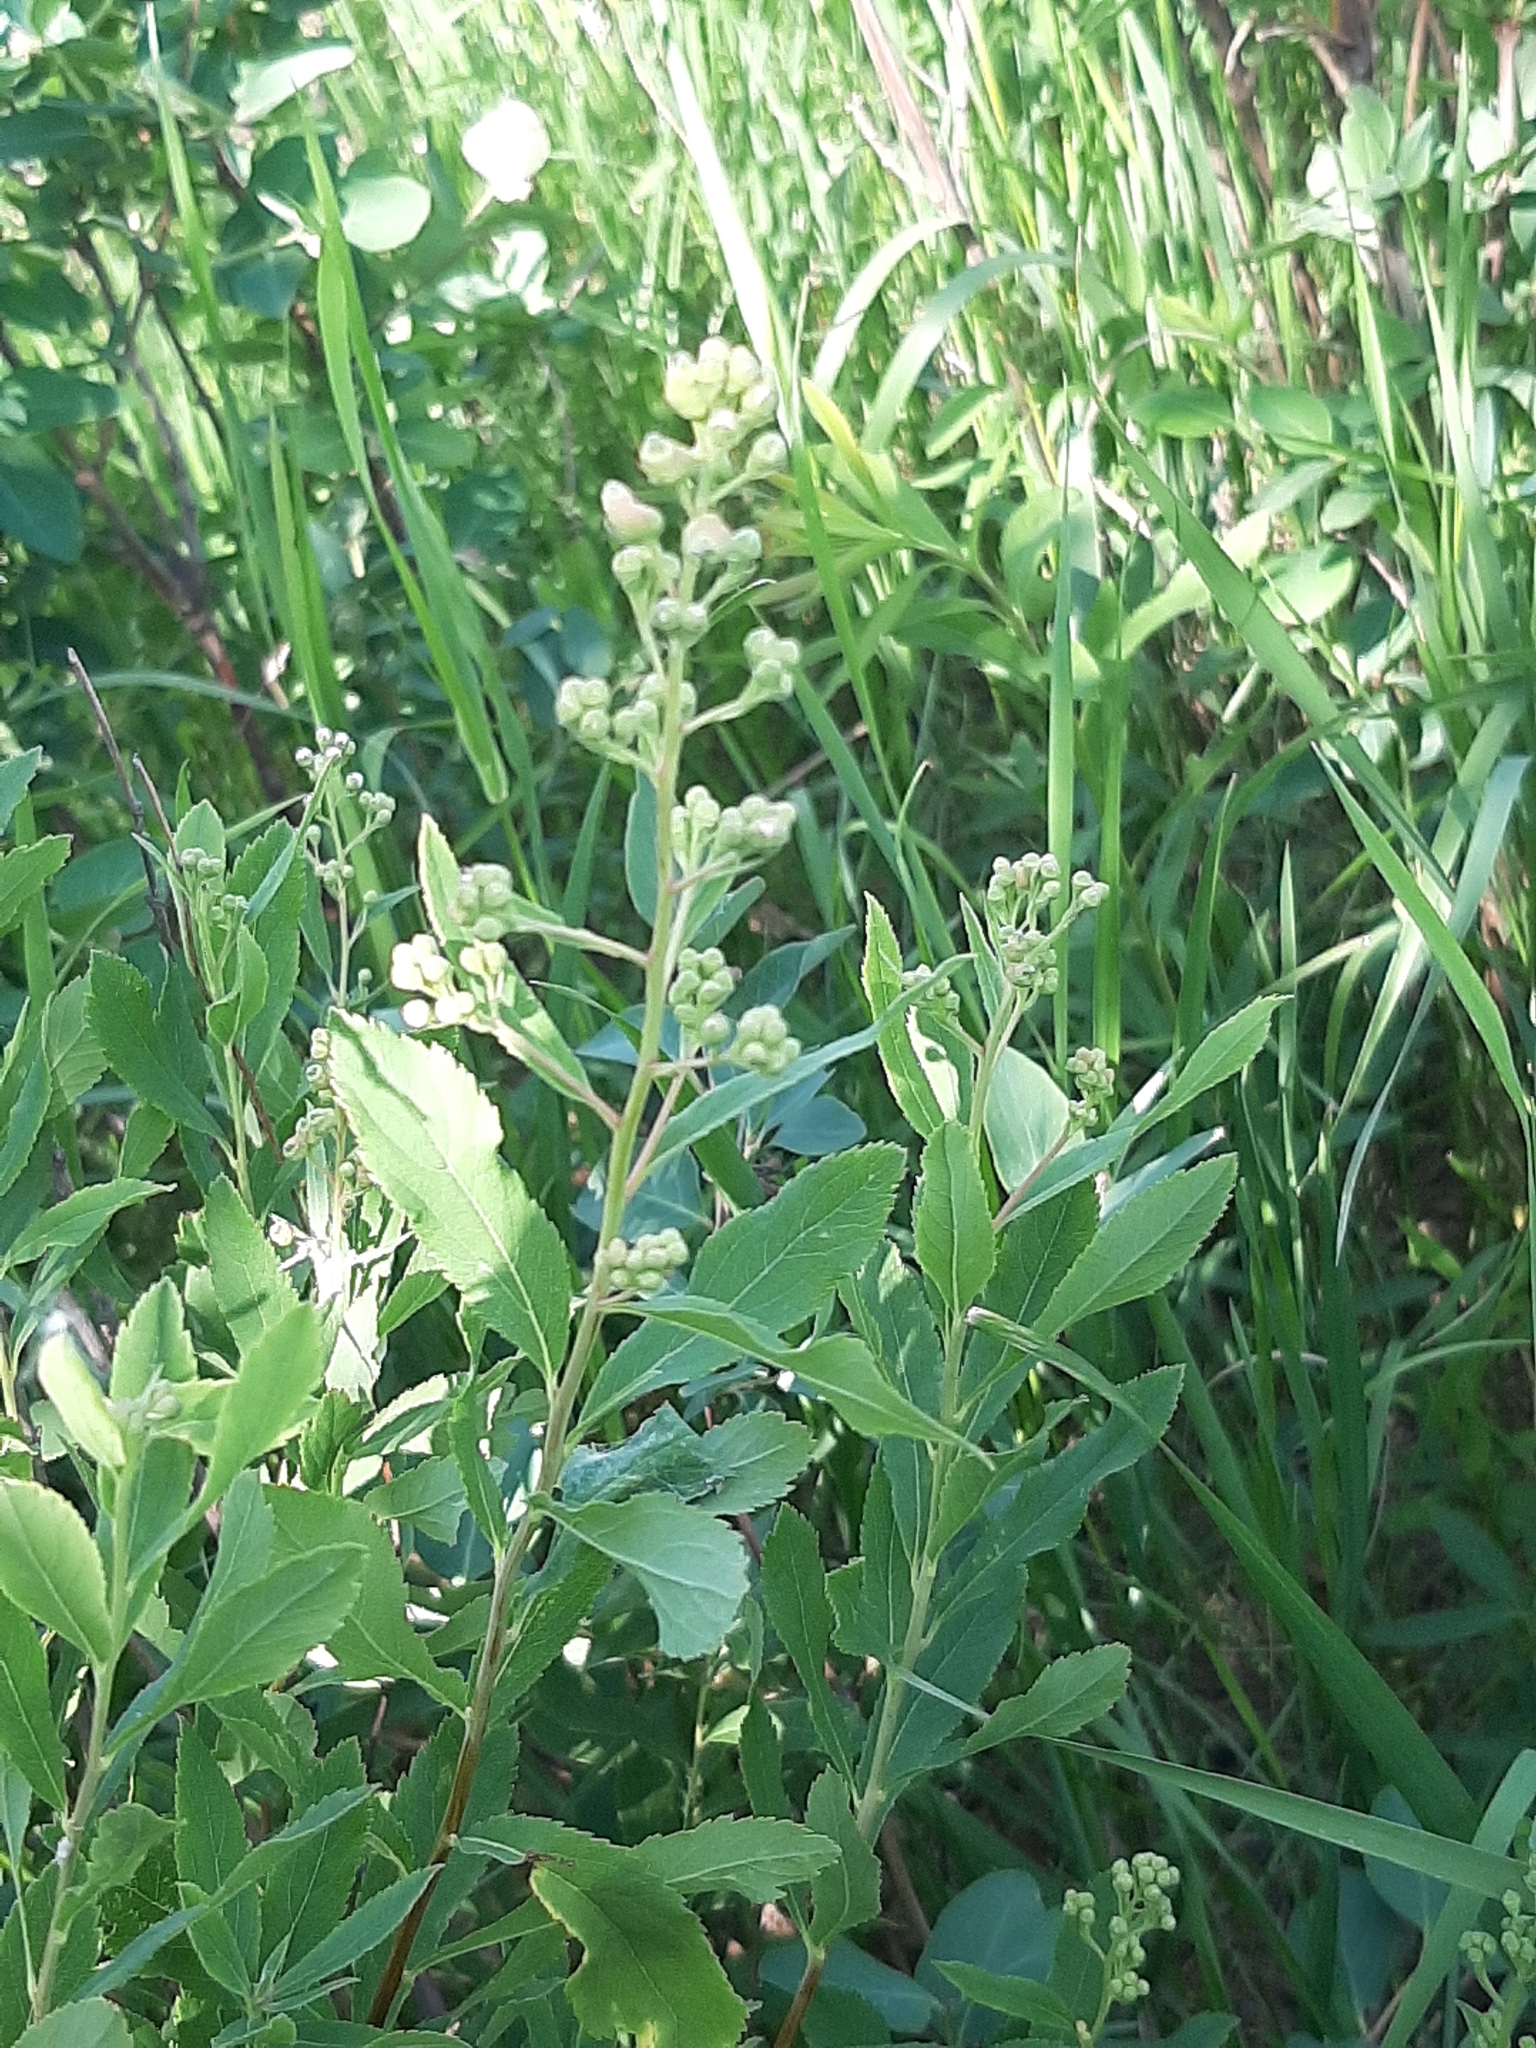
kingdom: Plantae
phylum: Tracheophyta
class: Magnoliopsida
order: Rosales
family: Rosaceae
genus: Spiraea
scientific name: Spiraea alba
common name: Pale bridewort
